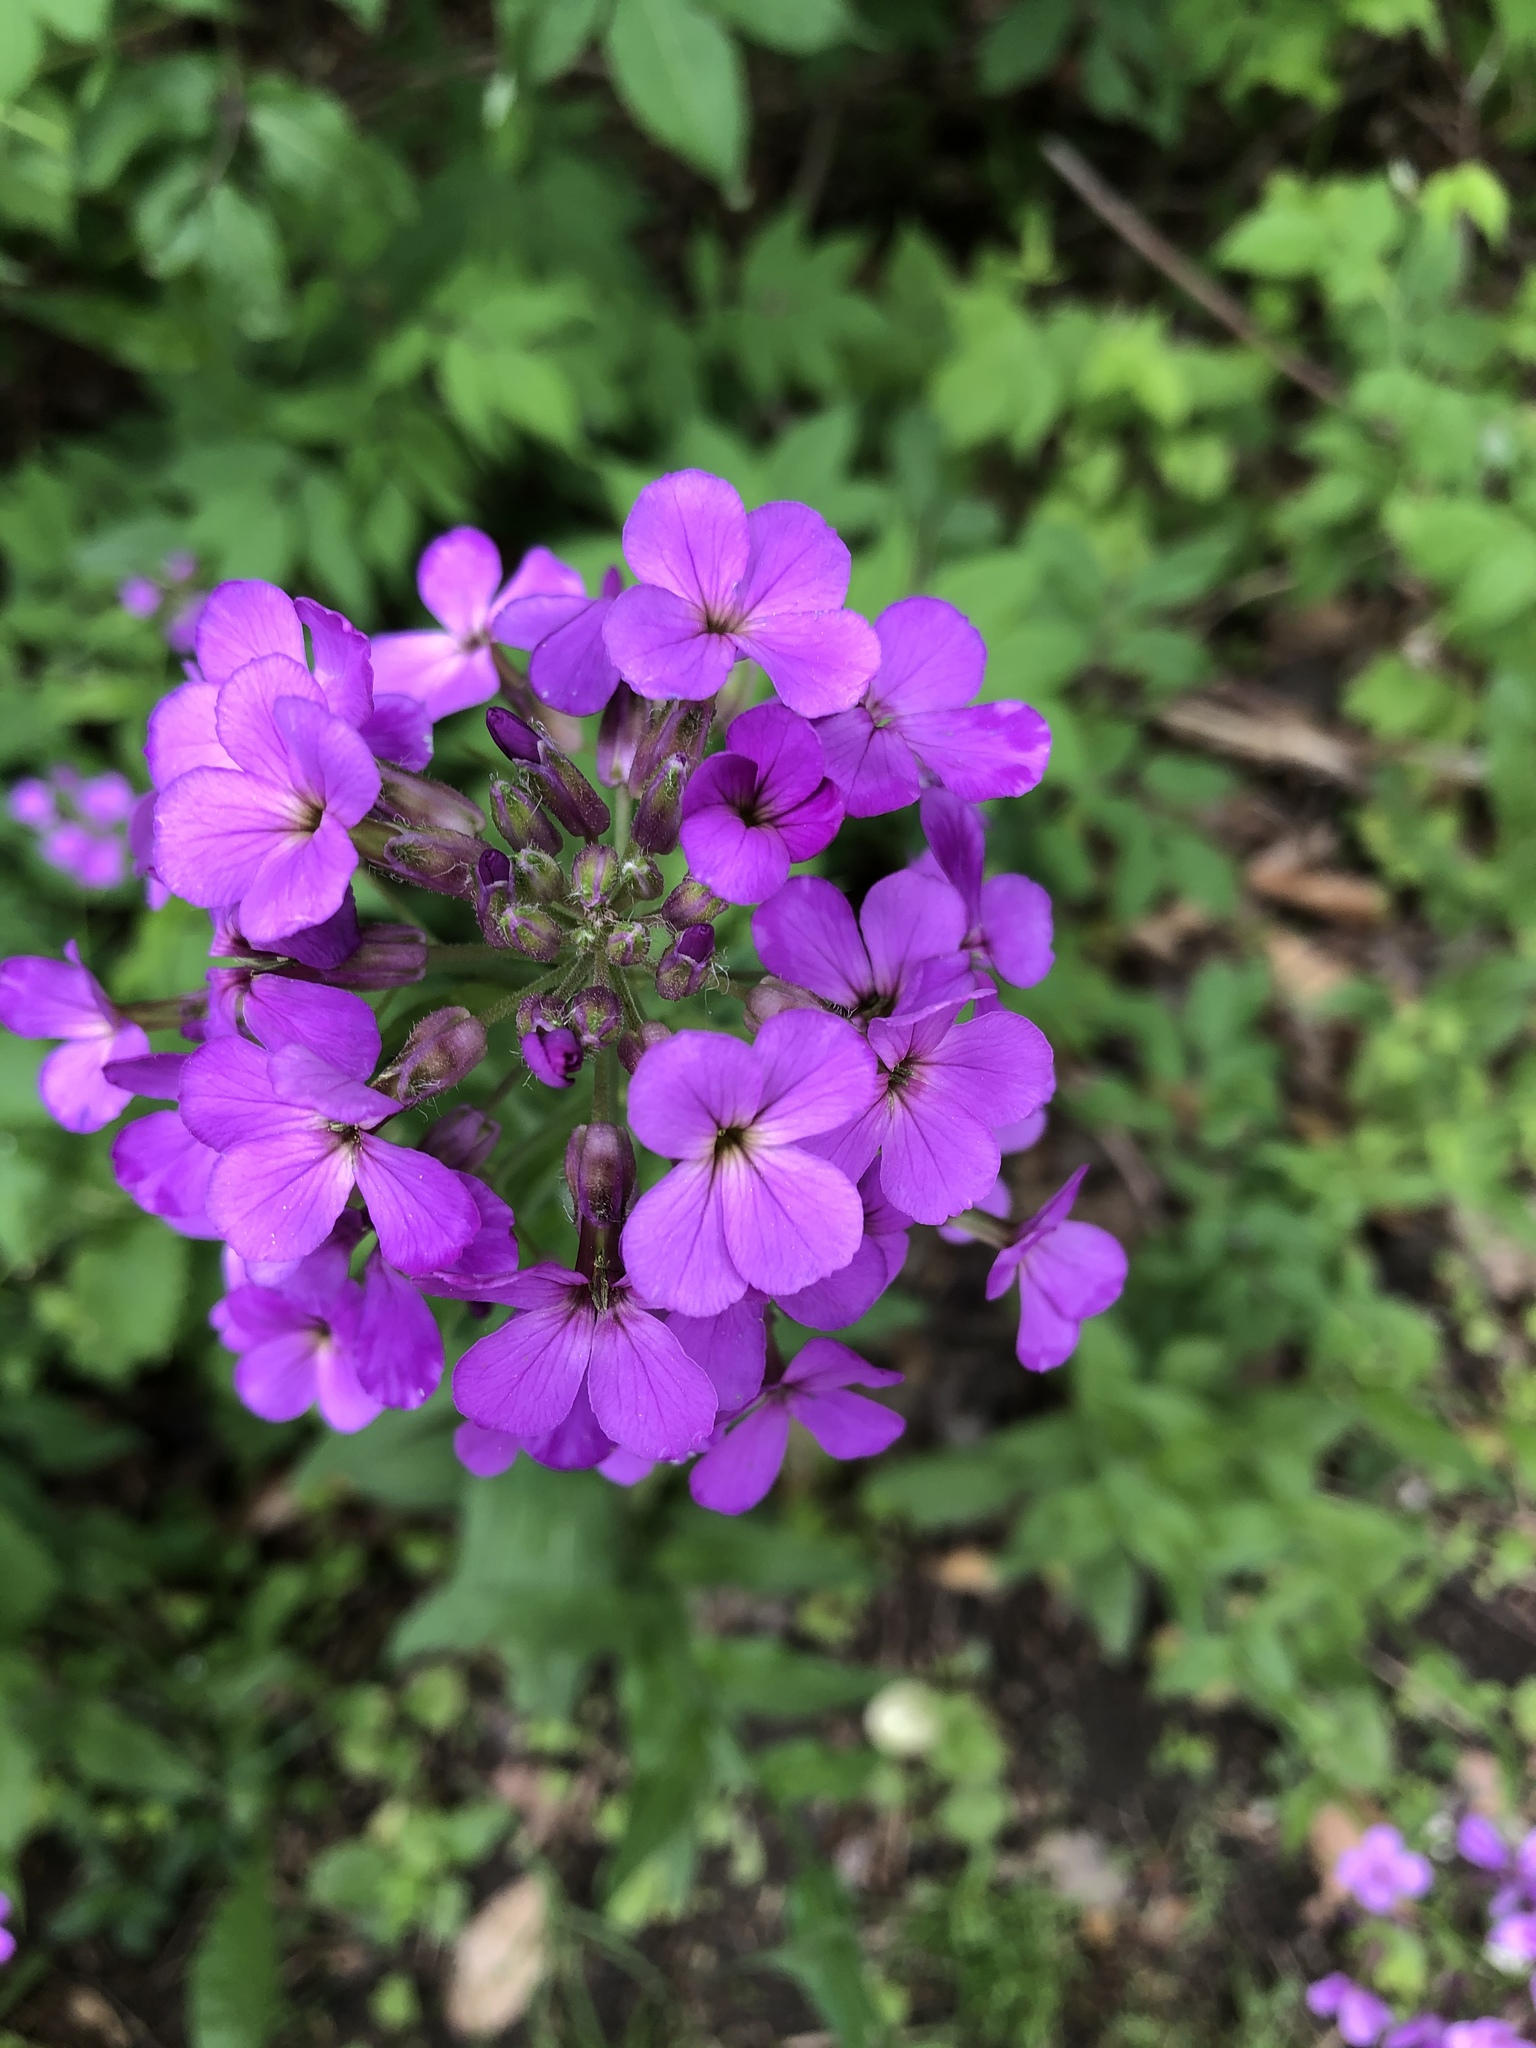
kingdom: Plantae
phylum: Tracheophyta
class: Magnoliopsida
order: Brassicales
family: Brassicaceae
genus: Hesperis
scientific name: Hesperis matronalis
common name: Dame's-violet
